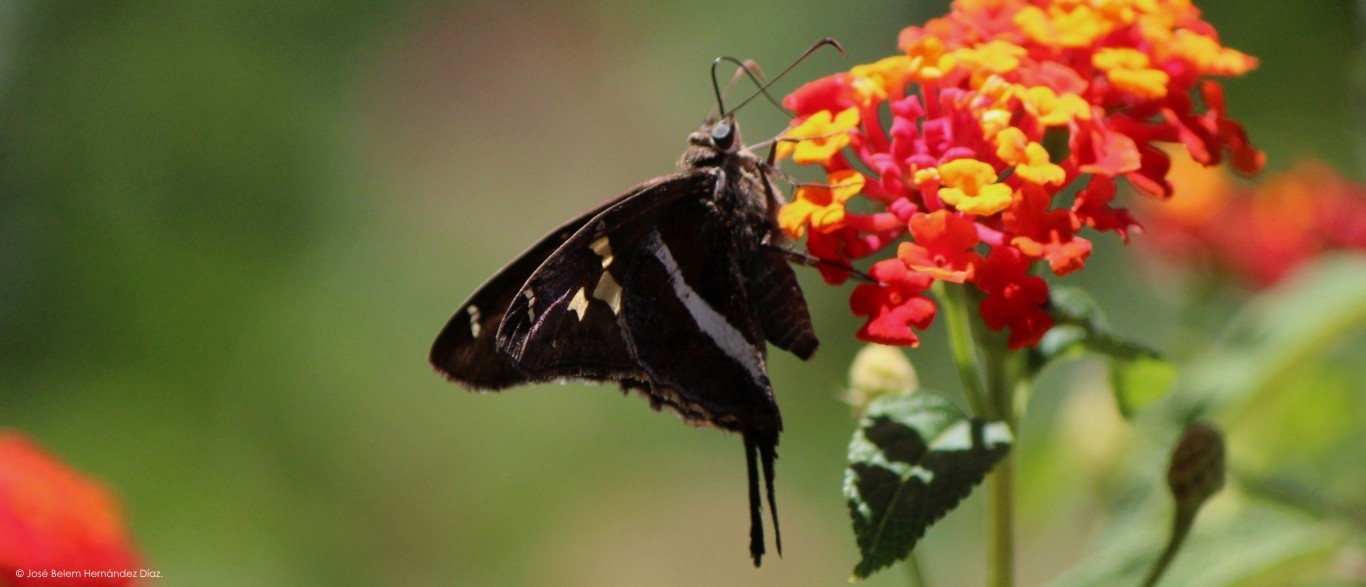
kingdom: Animalia
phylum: Arthropoda
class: Insecta
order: Lepidoptera
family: Hesperiidae
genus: Chioides
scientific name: Chioides catillus
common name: Silverbanded skipper
